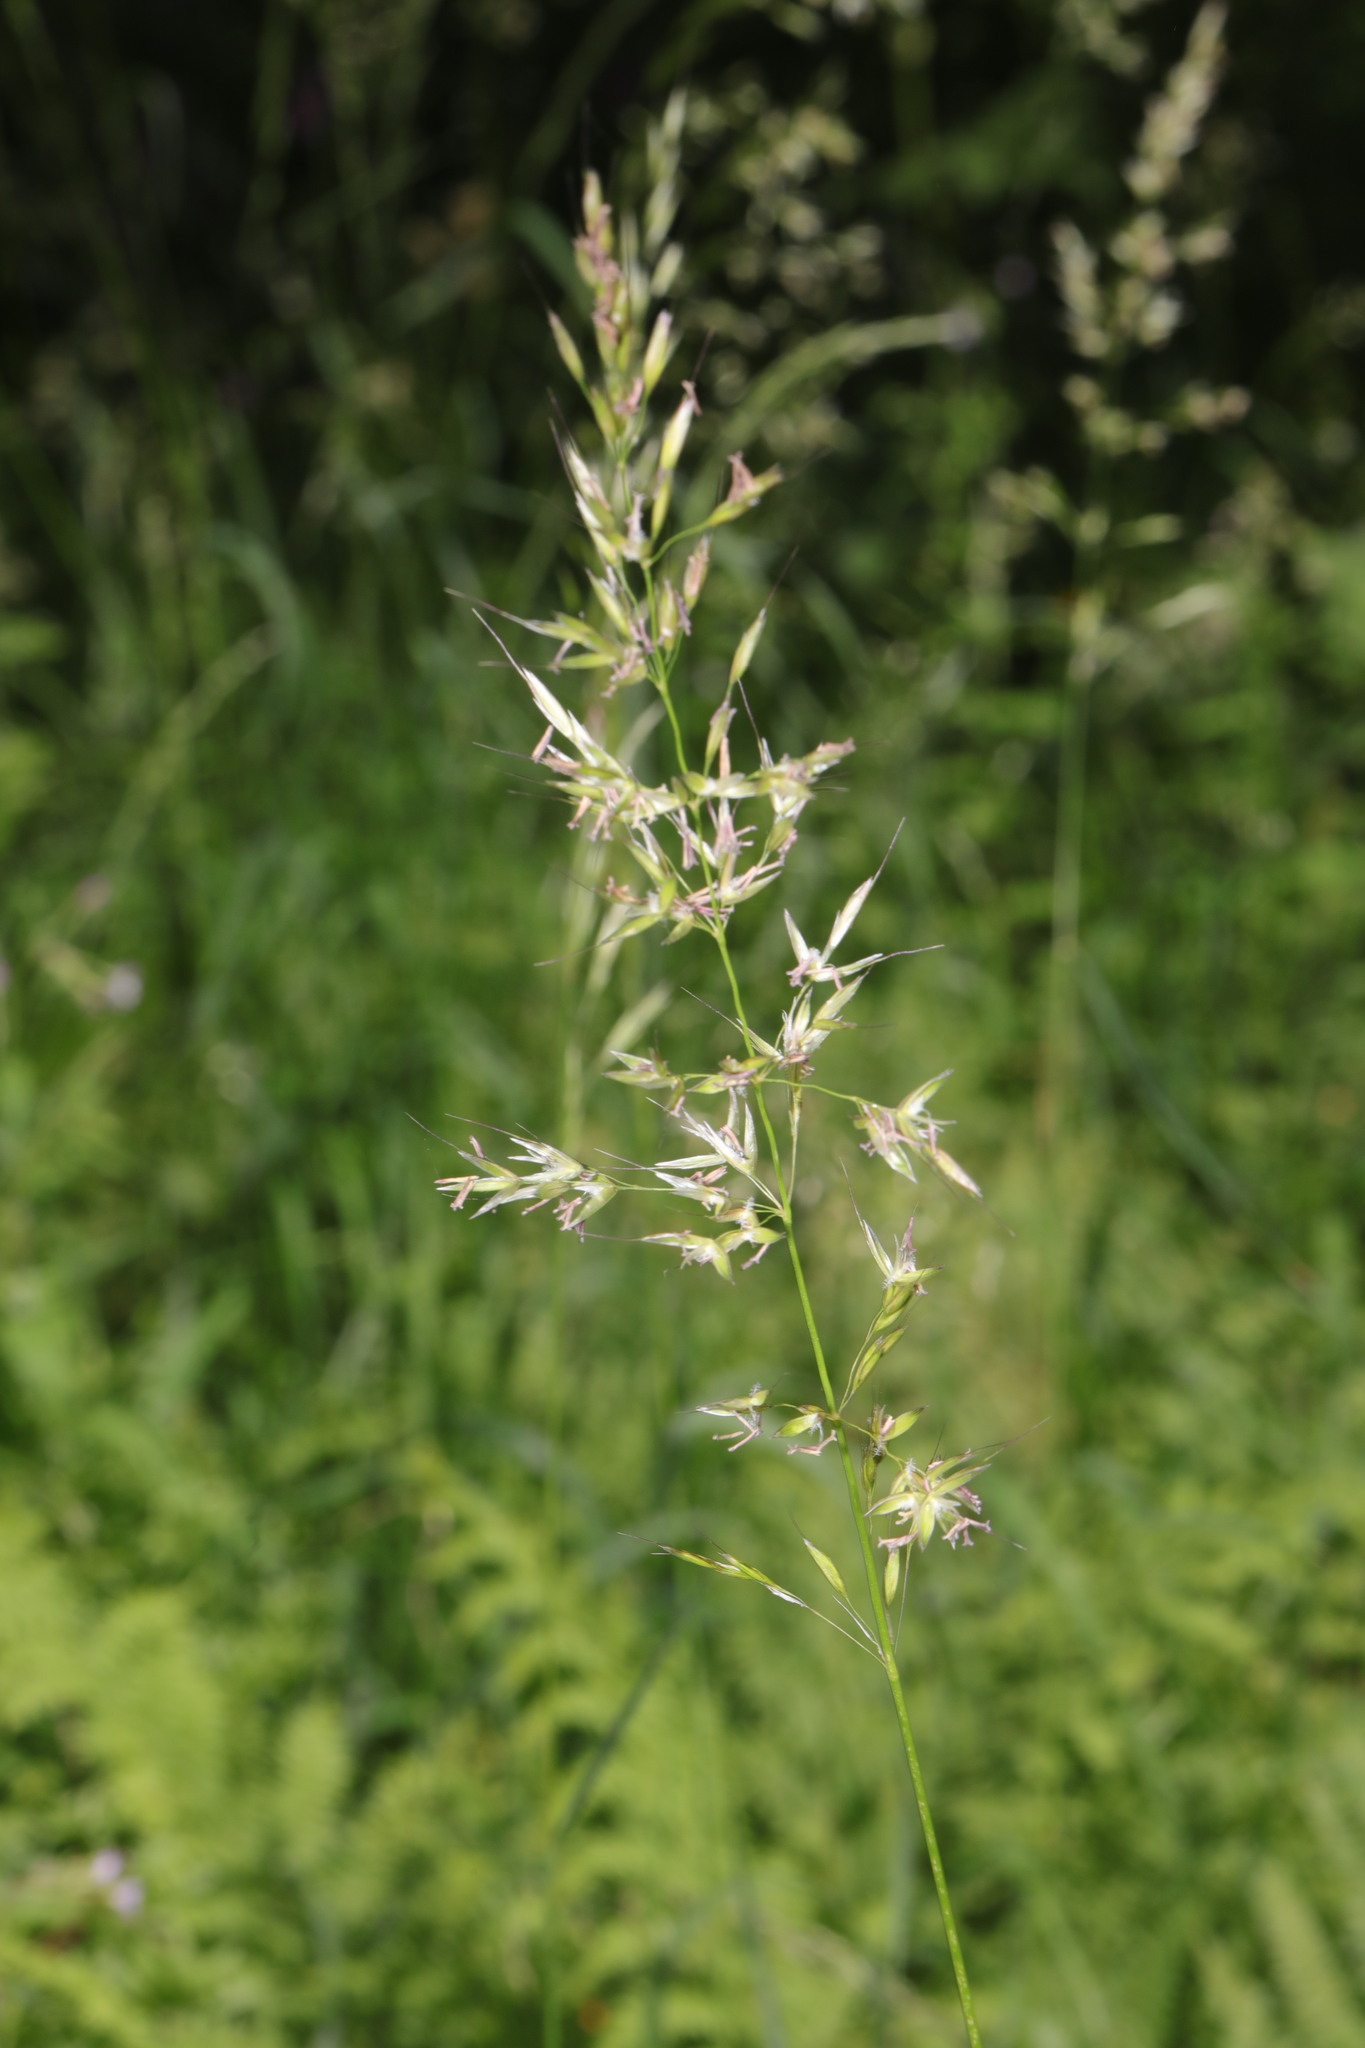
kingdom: Plantae
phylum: Tracheophyta
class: Liliopsida
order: Poales
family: Poaceae
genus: Arrhenatherum
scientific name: Arrhenatherum elatius
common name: Tall oatgrass
